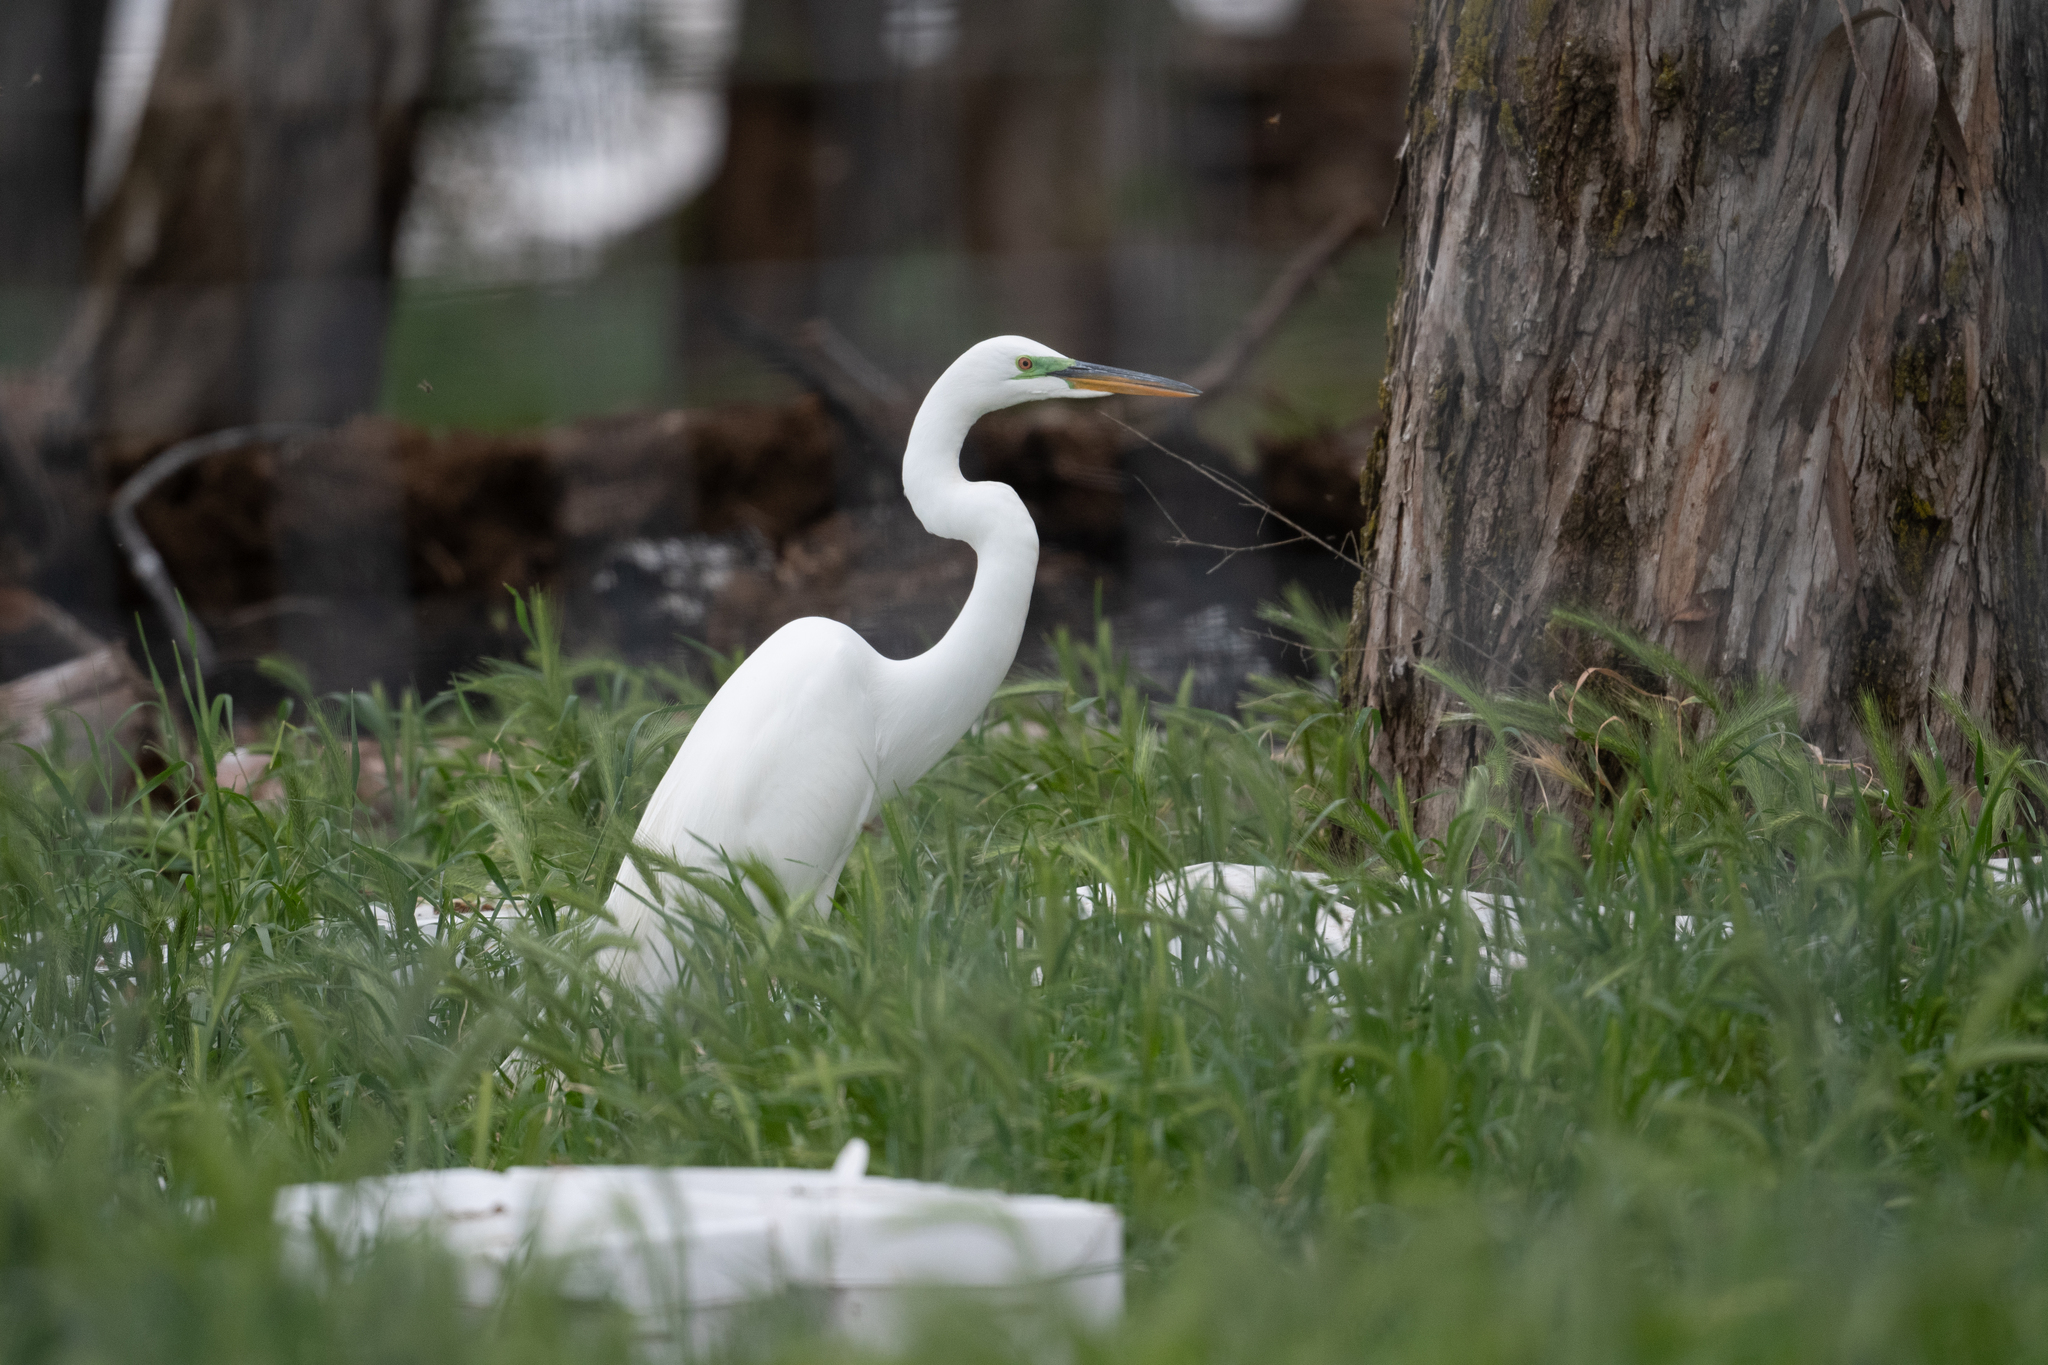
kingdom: Animalia
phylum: Chordata
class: Aves
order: Pelecaniformes
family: Ardeidae
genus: Ardea
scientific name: Ardea alba
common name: Great egret
